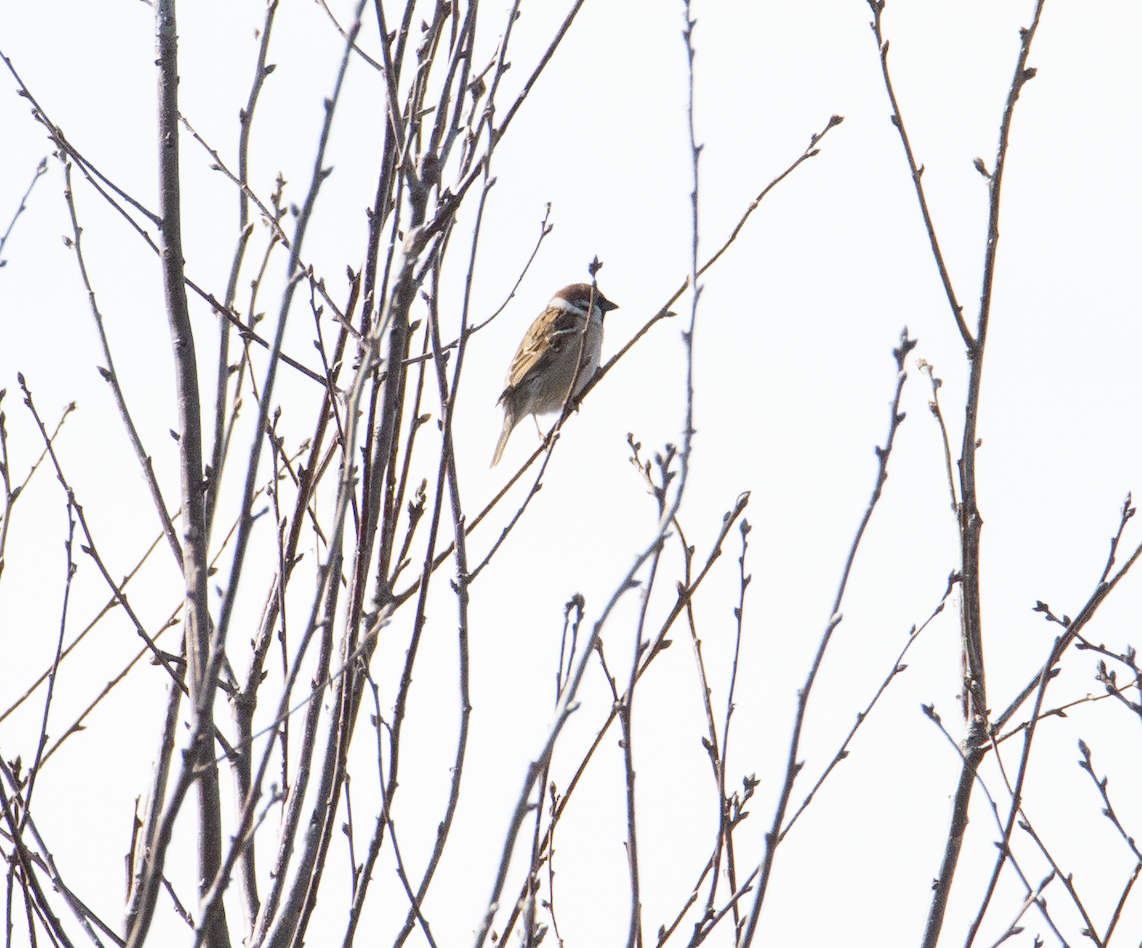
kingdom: Animalia
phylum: Chordata
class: Aves
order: Passeriformes
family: Passeridae
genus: Passer
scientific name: Passer montanus
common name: Eurasian tree sparrow
